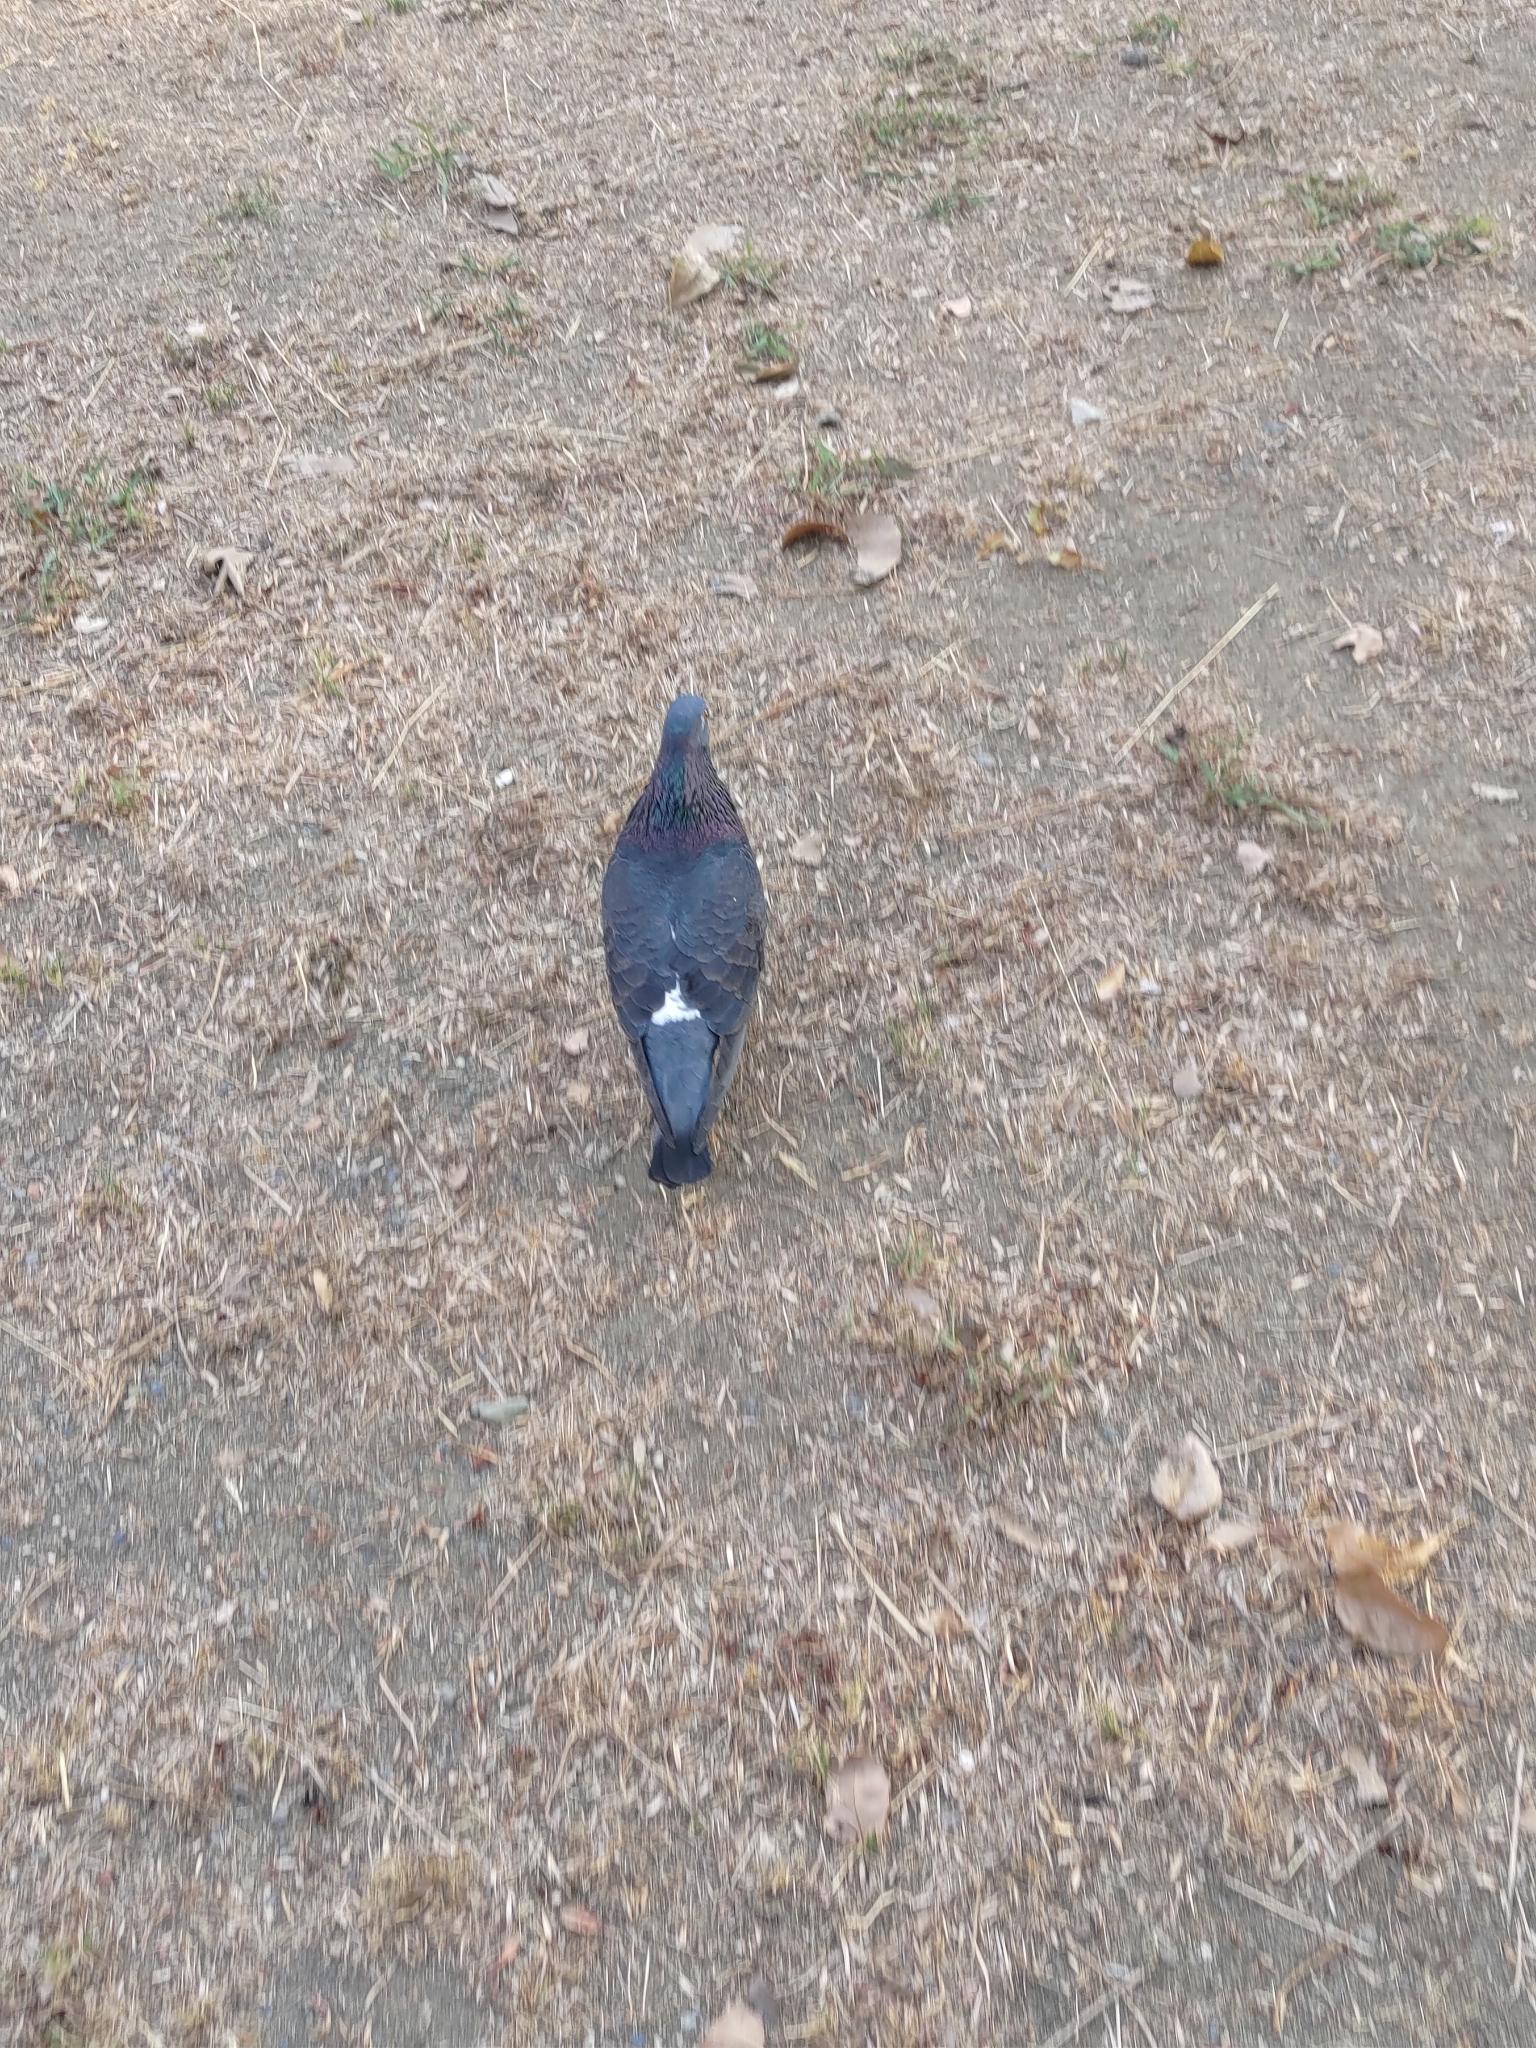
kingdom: Animalia
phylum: Chordata
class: Aves
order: Columbiformes
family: Columbidae
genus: Columba
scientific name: Columba livia
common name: Rock pigeon
